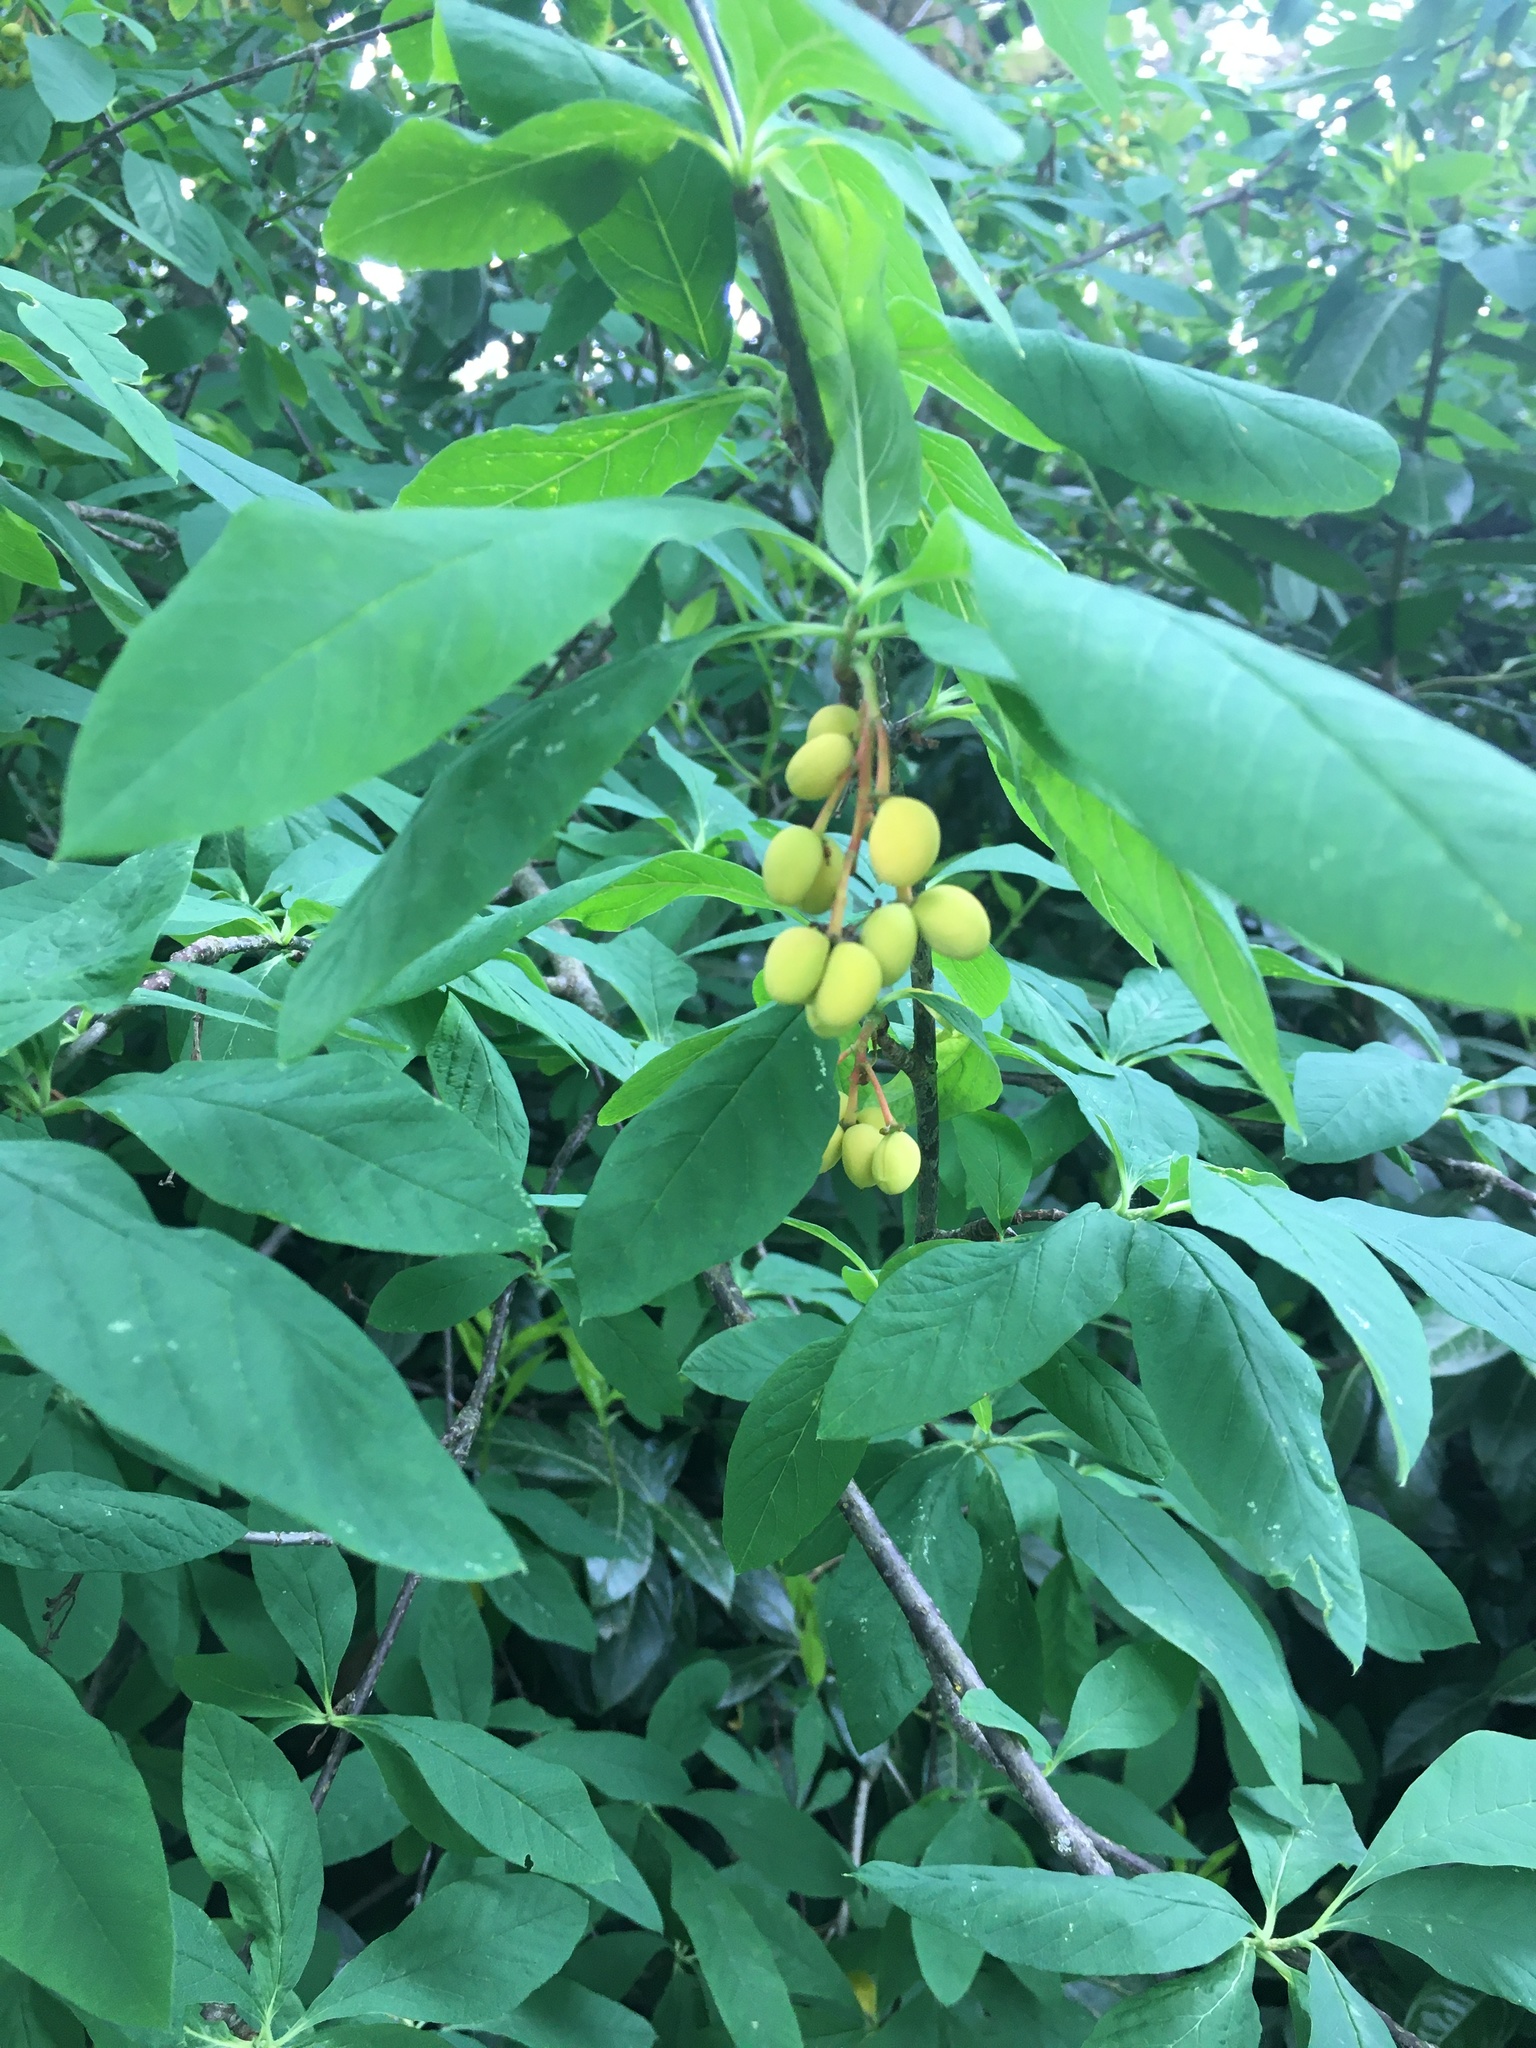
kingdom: Plantae
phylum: Tracheophyta
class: Magnoliopsida
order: Rosales
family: Rosaceae
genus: Oemleria
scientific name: Oemleria cerasiformis
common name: Osoberry
